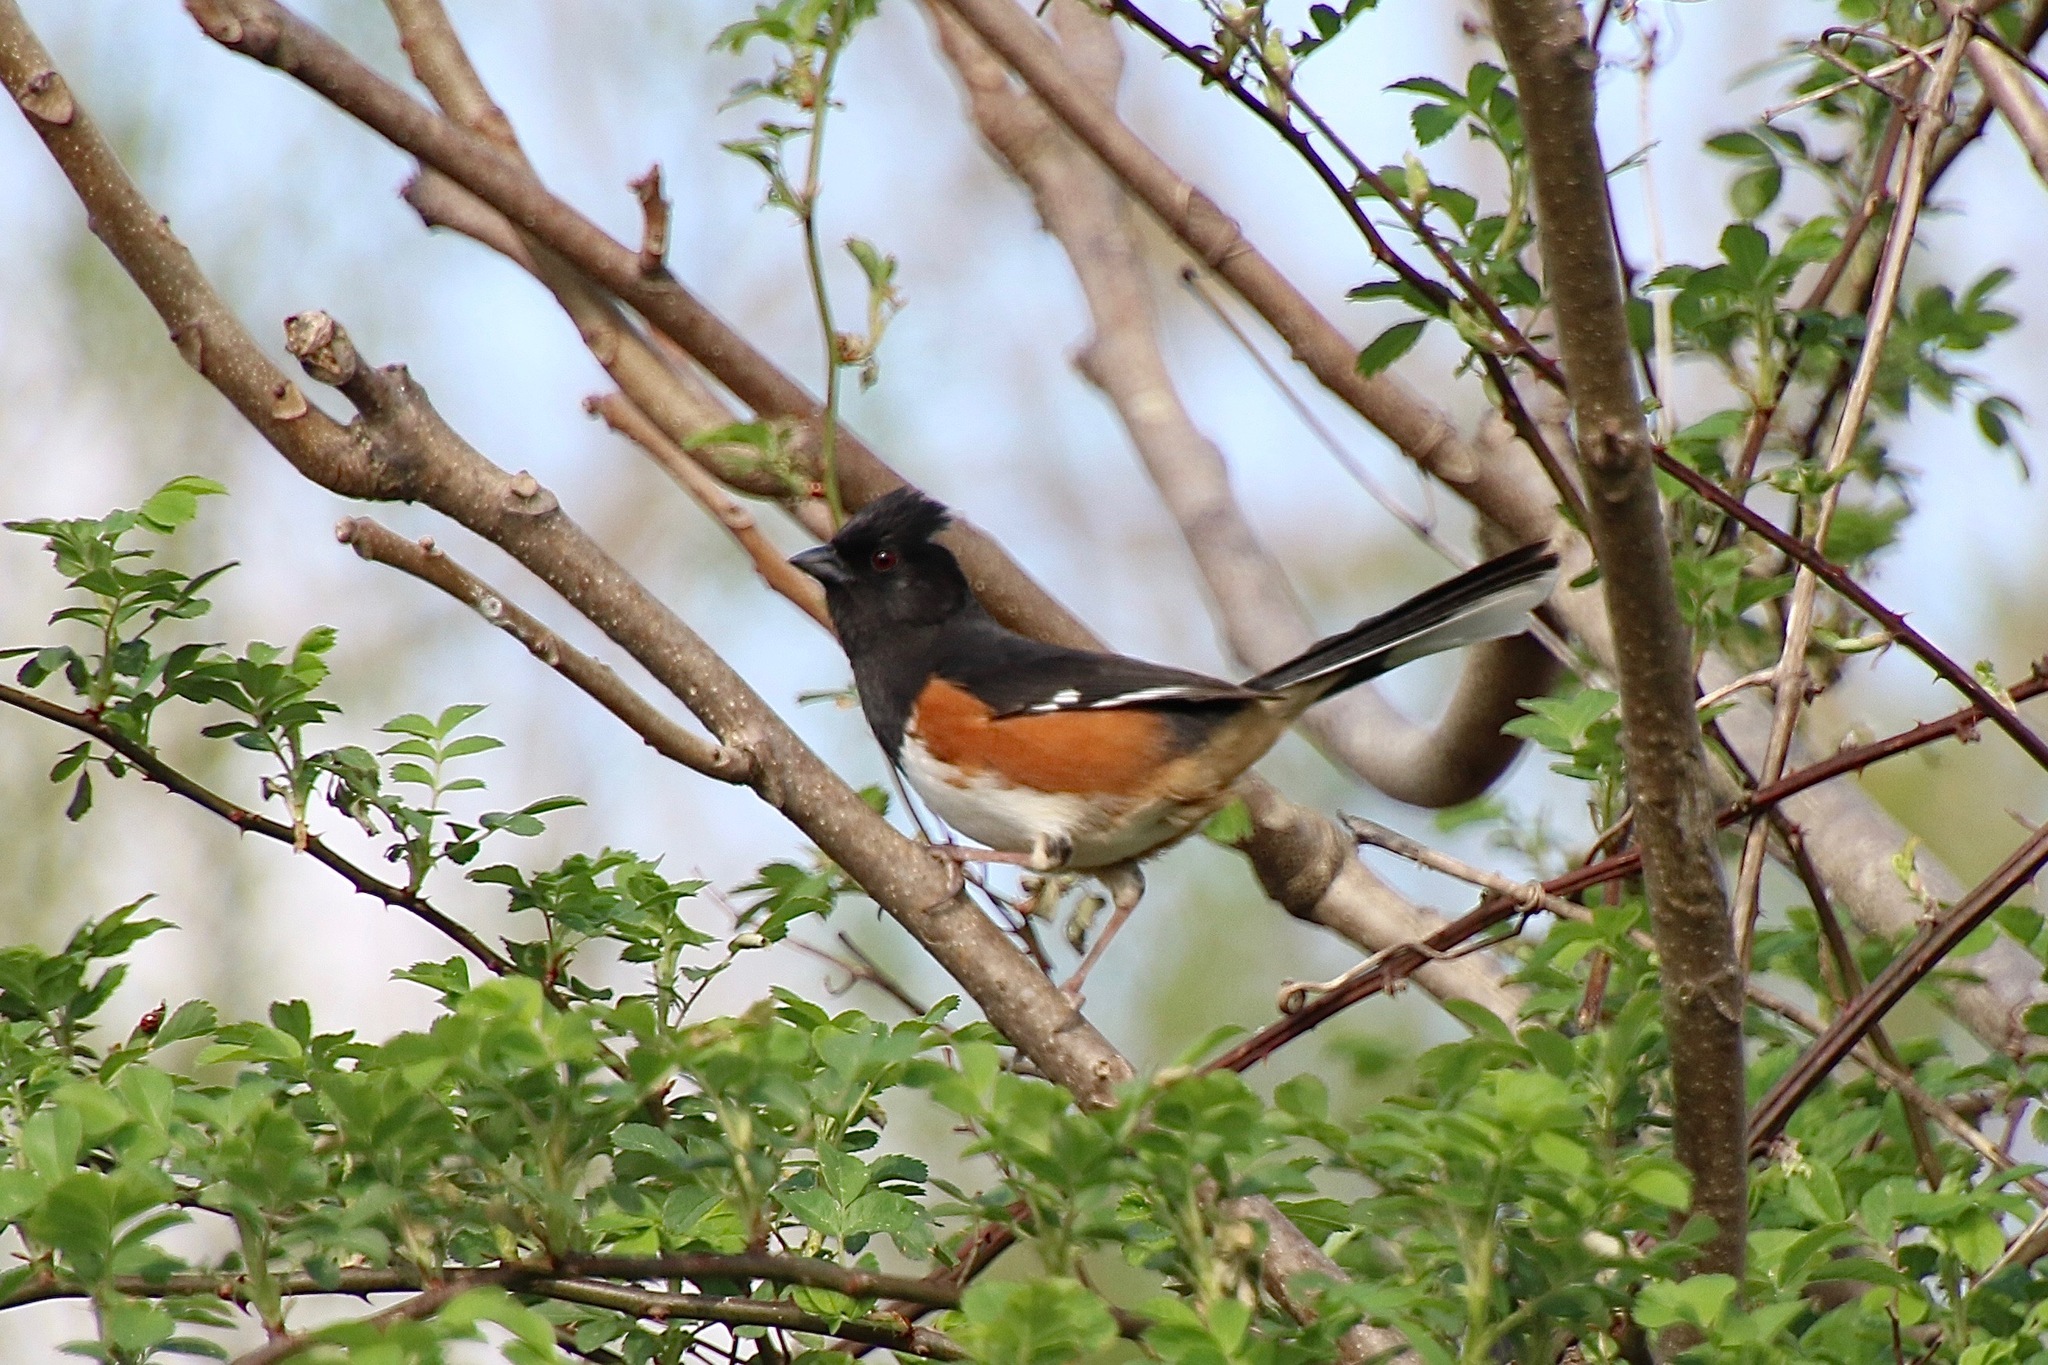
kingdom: Animalia
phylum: Chordata
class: Aves
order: Passeriformes
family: Passerellidae
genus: Pipilo
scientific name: Pipilo erythrophthalmus
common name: Eastern towhee
